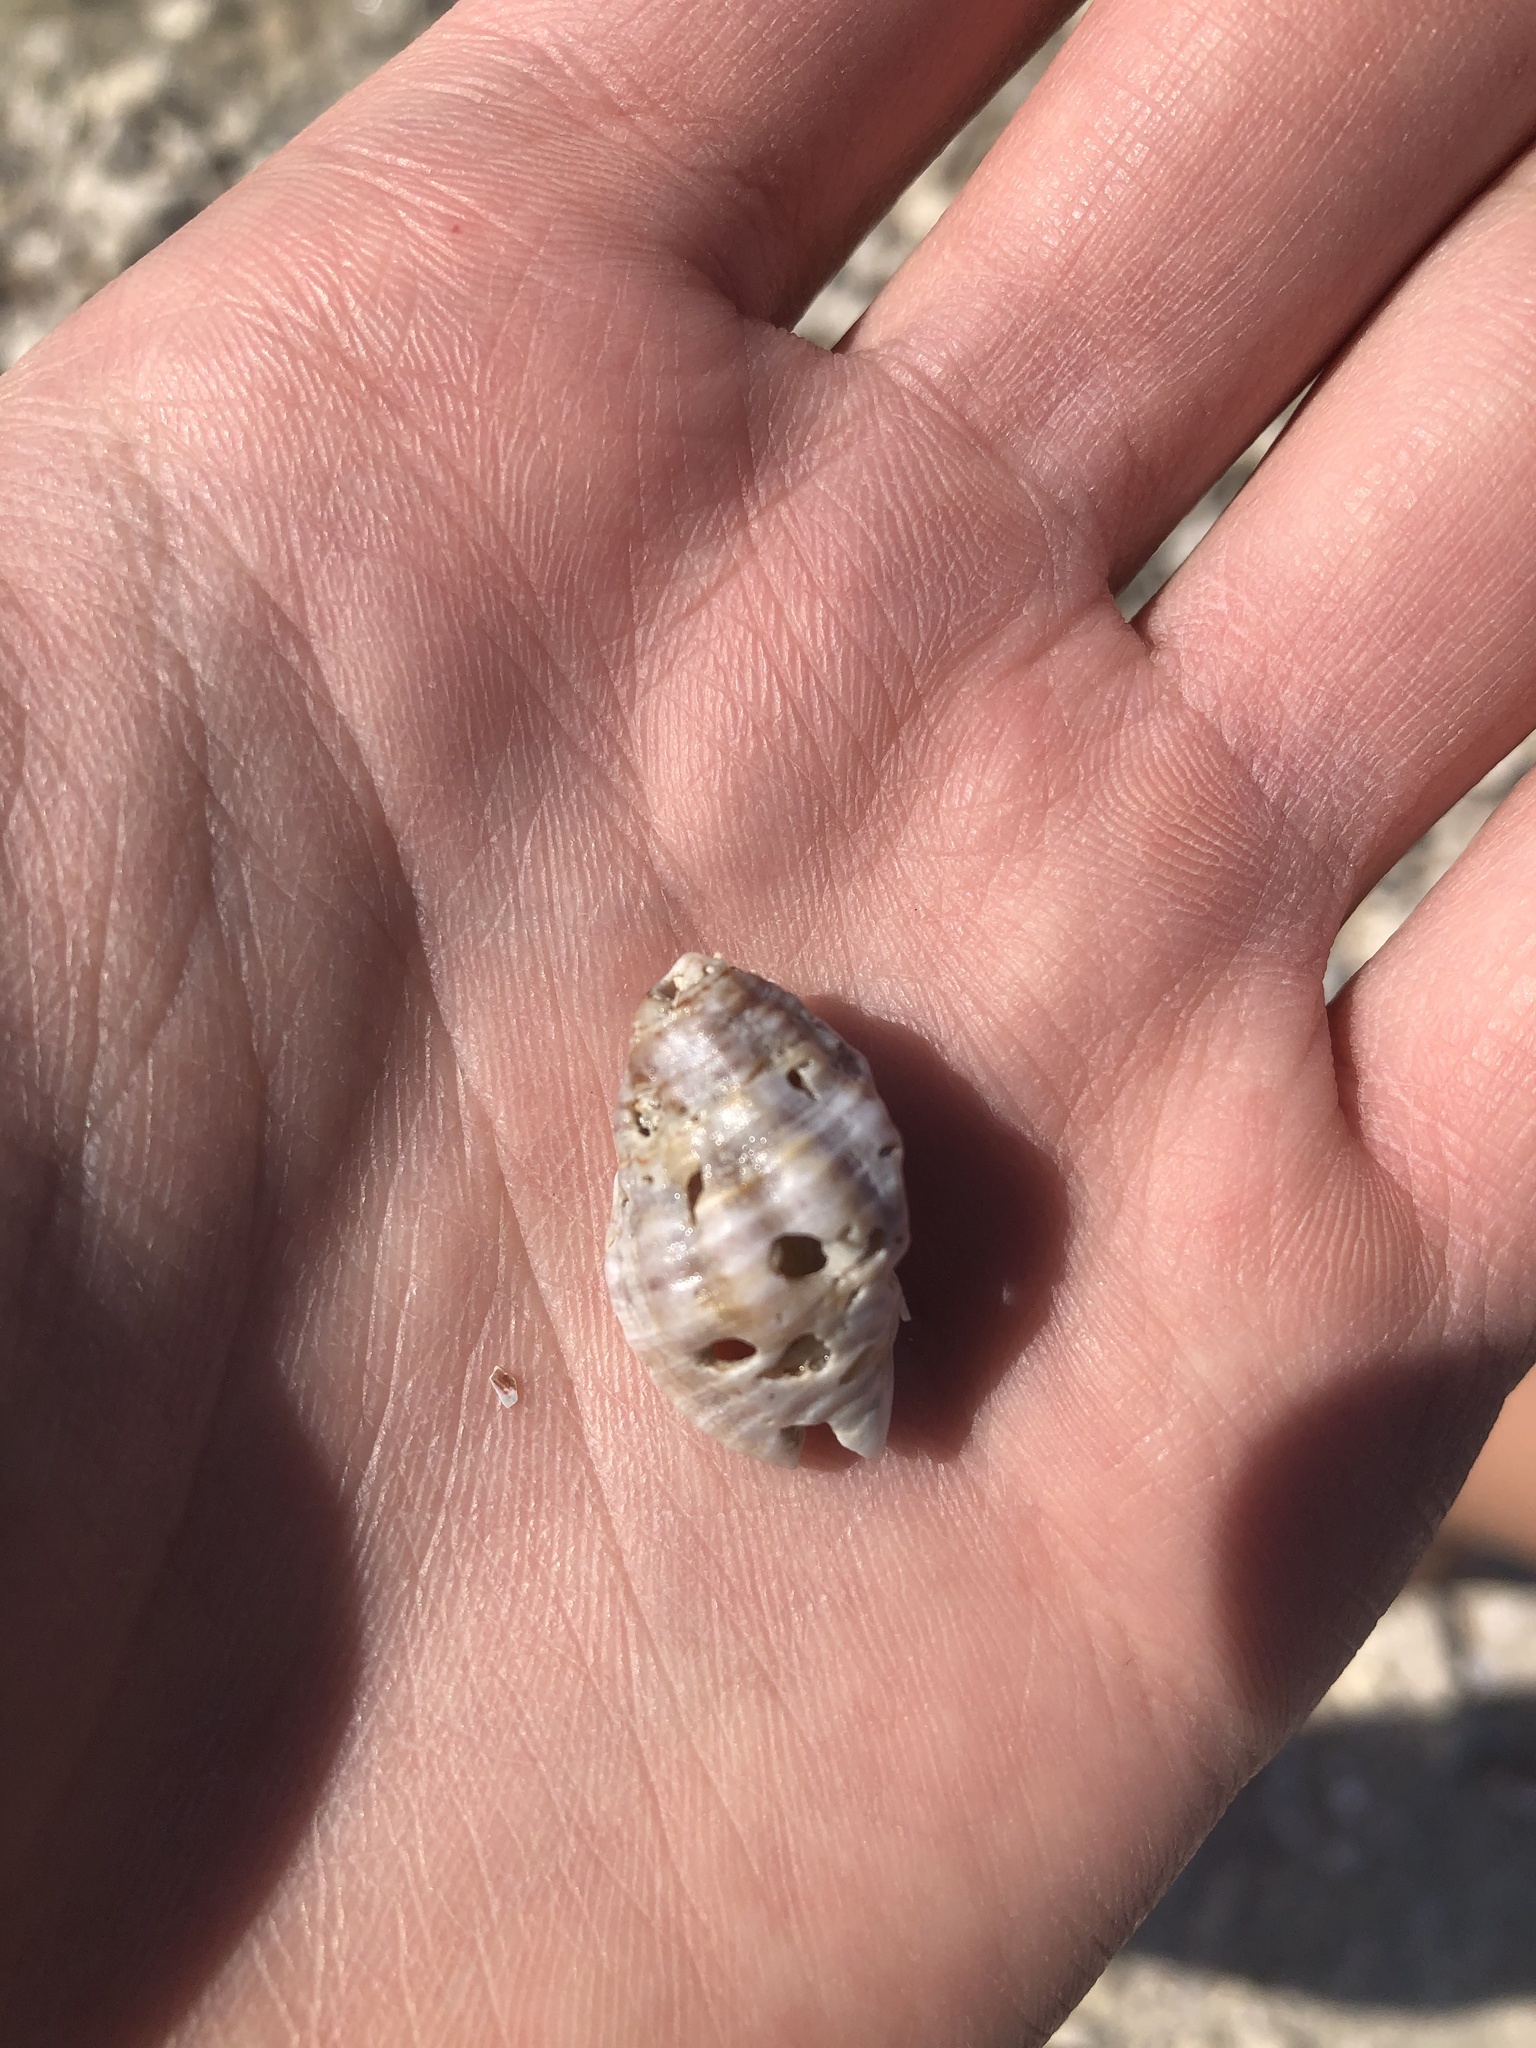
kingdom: Animalia
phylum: Mollusca
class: Gastropoda
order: Neogastropoda
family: Pisaniidae
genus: Gemophos
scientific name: Gemophos tinctus
